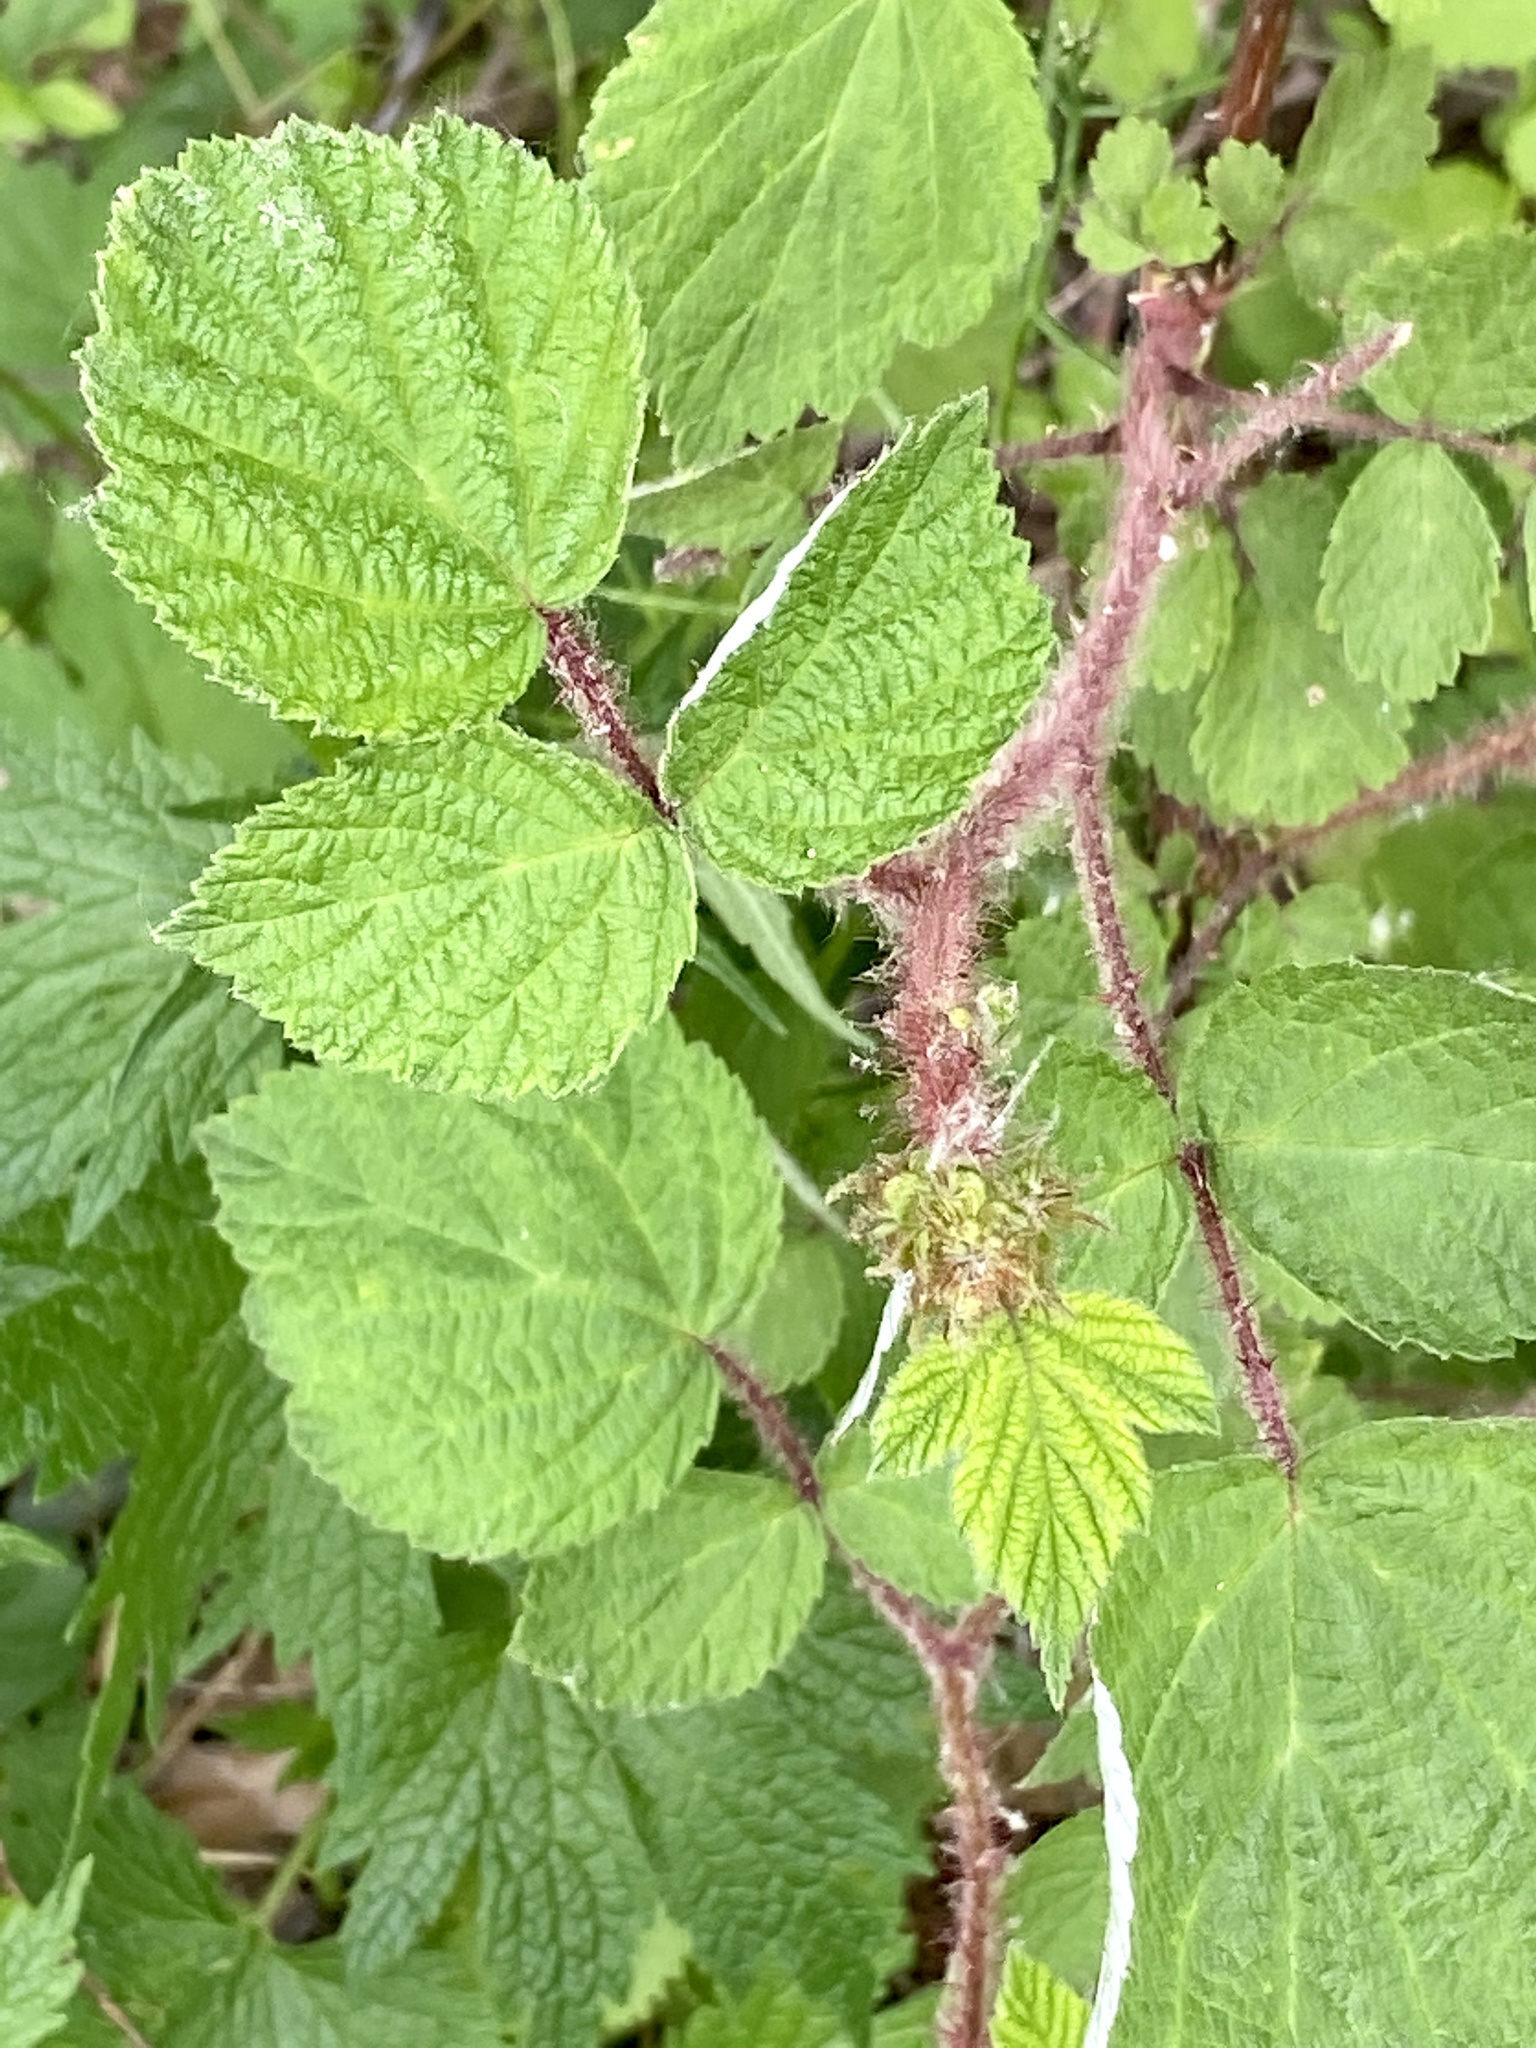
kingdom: Plantae
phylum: Tracheophyta
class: Magnoliopsida
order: Rosales
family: Rosaceae
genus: Rubus
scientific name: Rubus phoenicolasius
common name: Japanese wineberry
